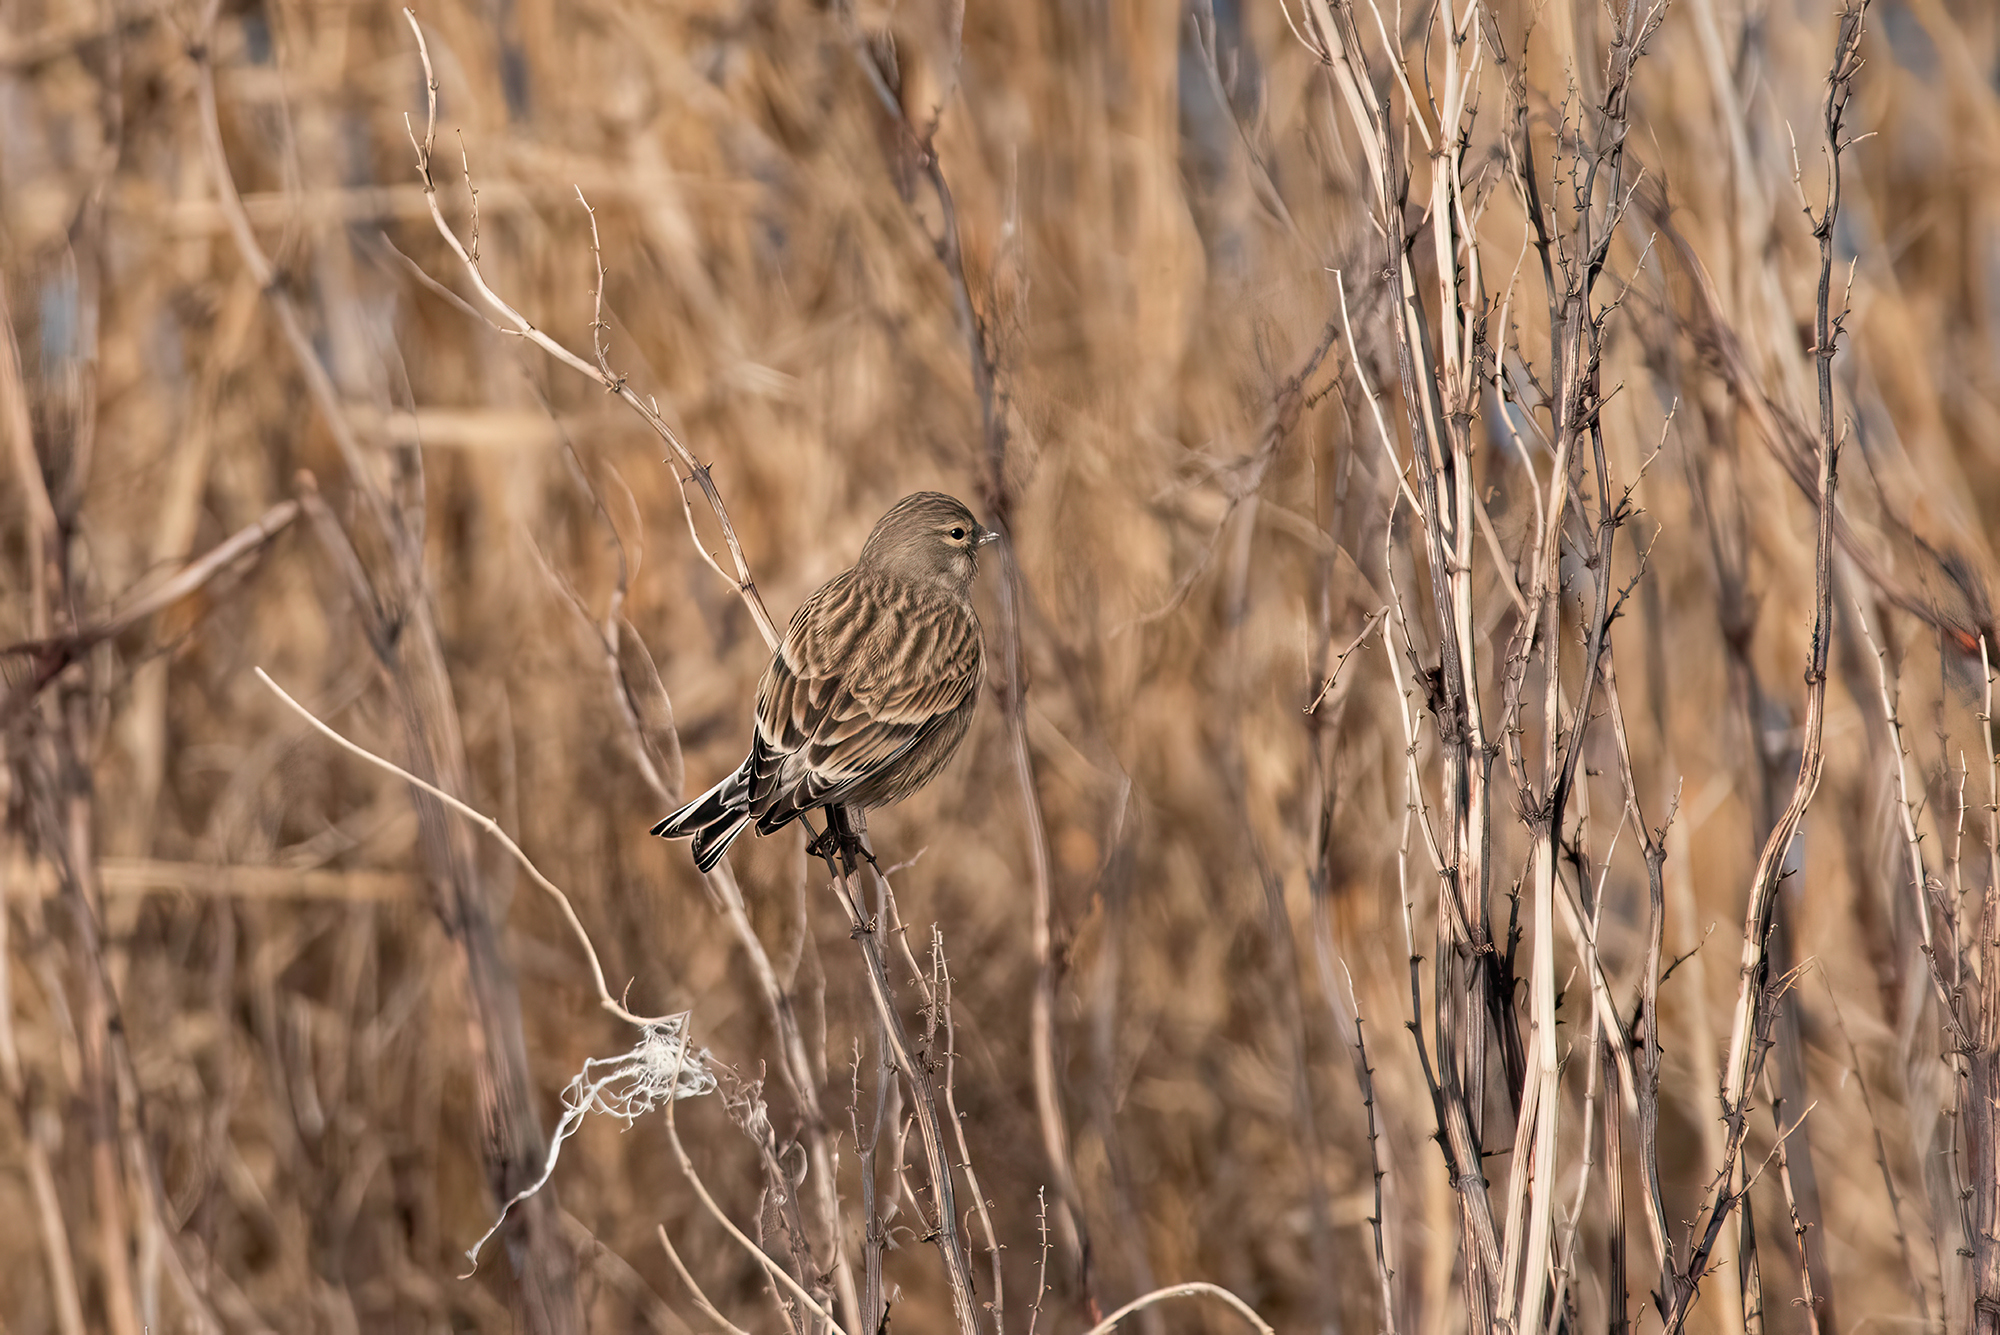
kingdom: Animalia
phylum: Chordata
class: Aves
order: Passeriformes
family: Fringillidae
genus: Linaria
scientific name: Linaria cannabina
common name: Common linnet
